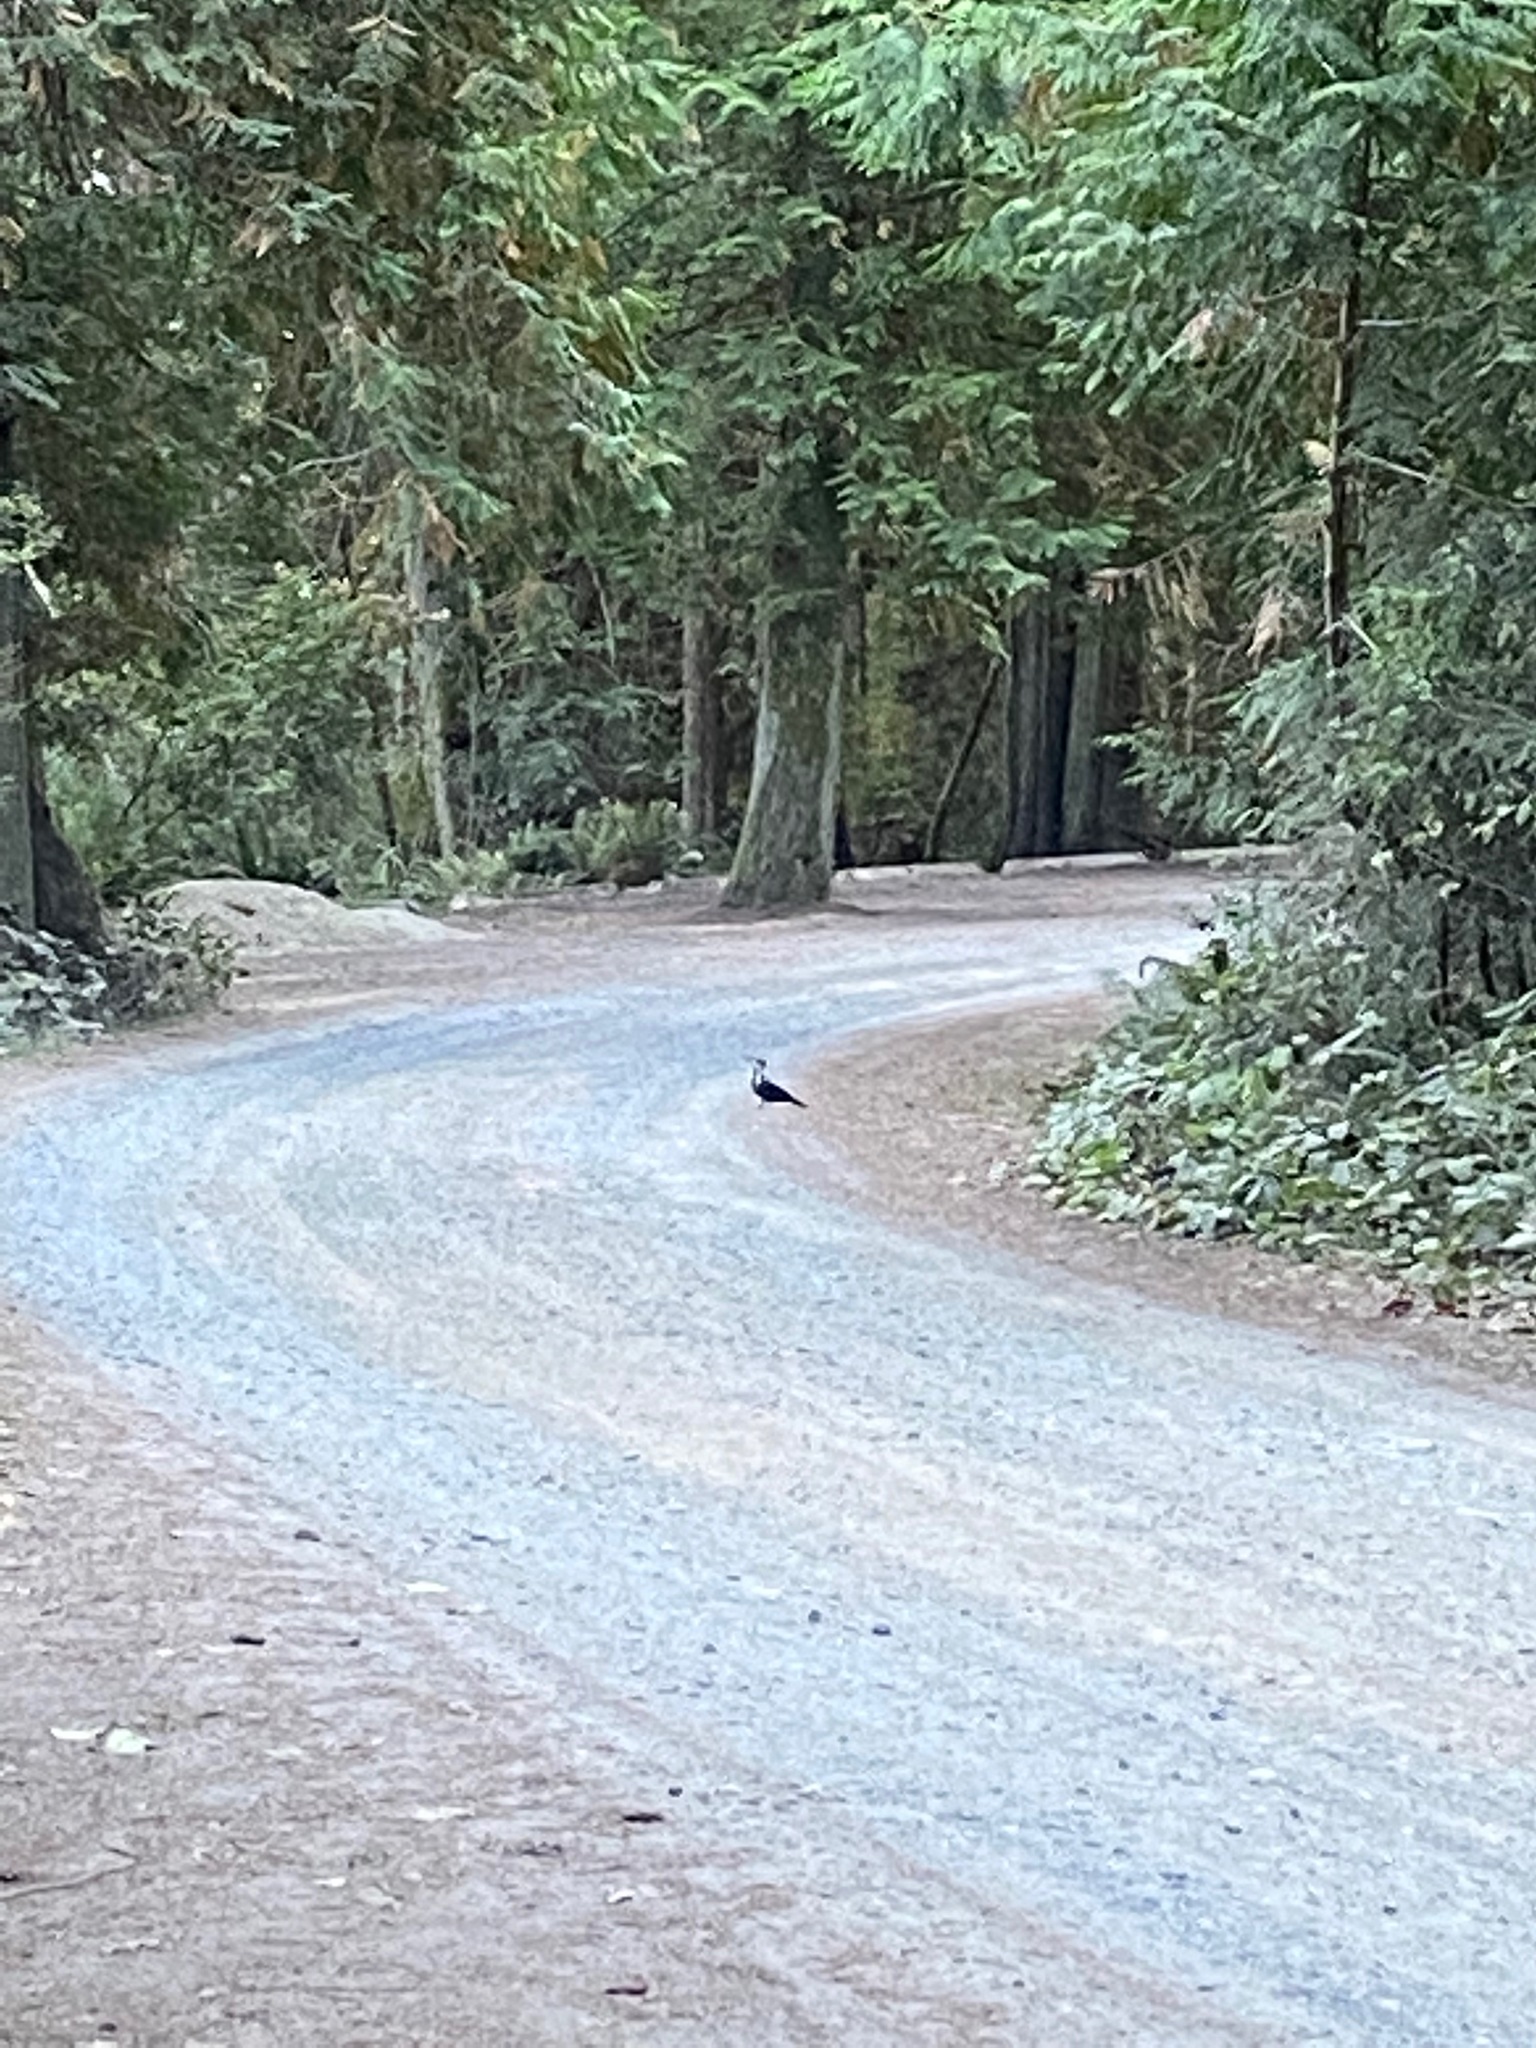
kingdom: Animalia
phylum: Chordata
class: Aves
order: Piciformes
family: Picidae
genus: Dryocopus
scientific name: Dryocopus pileatus
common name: Pileated woodpecker
